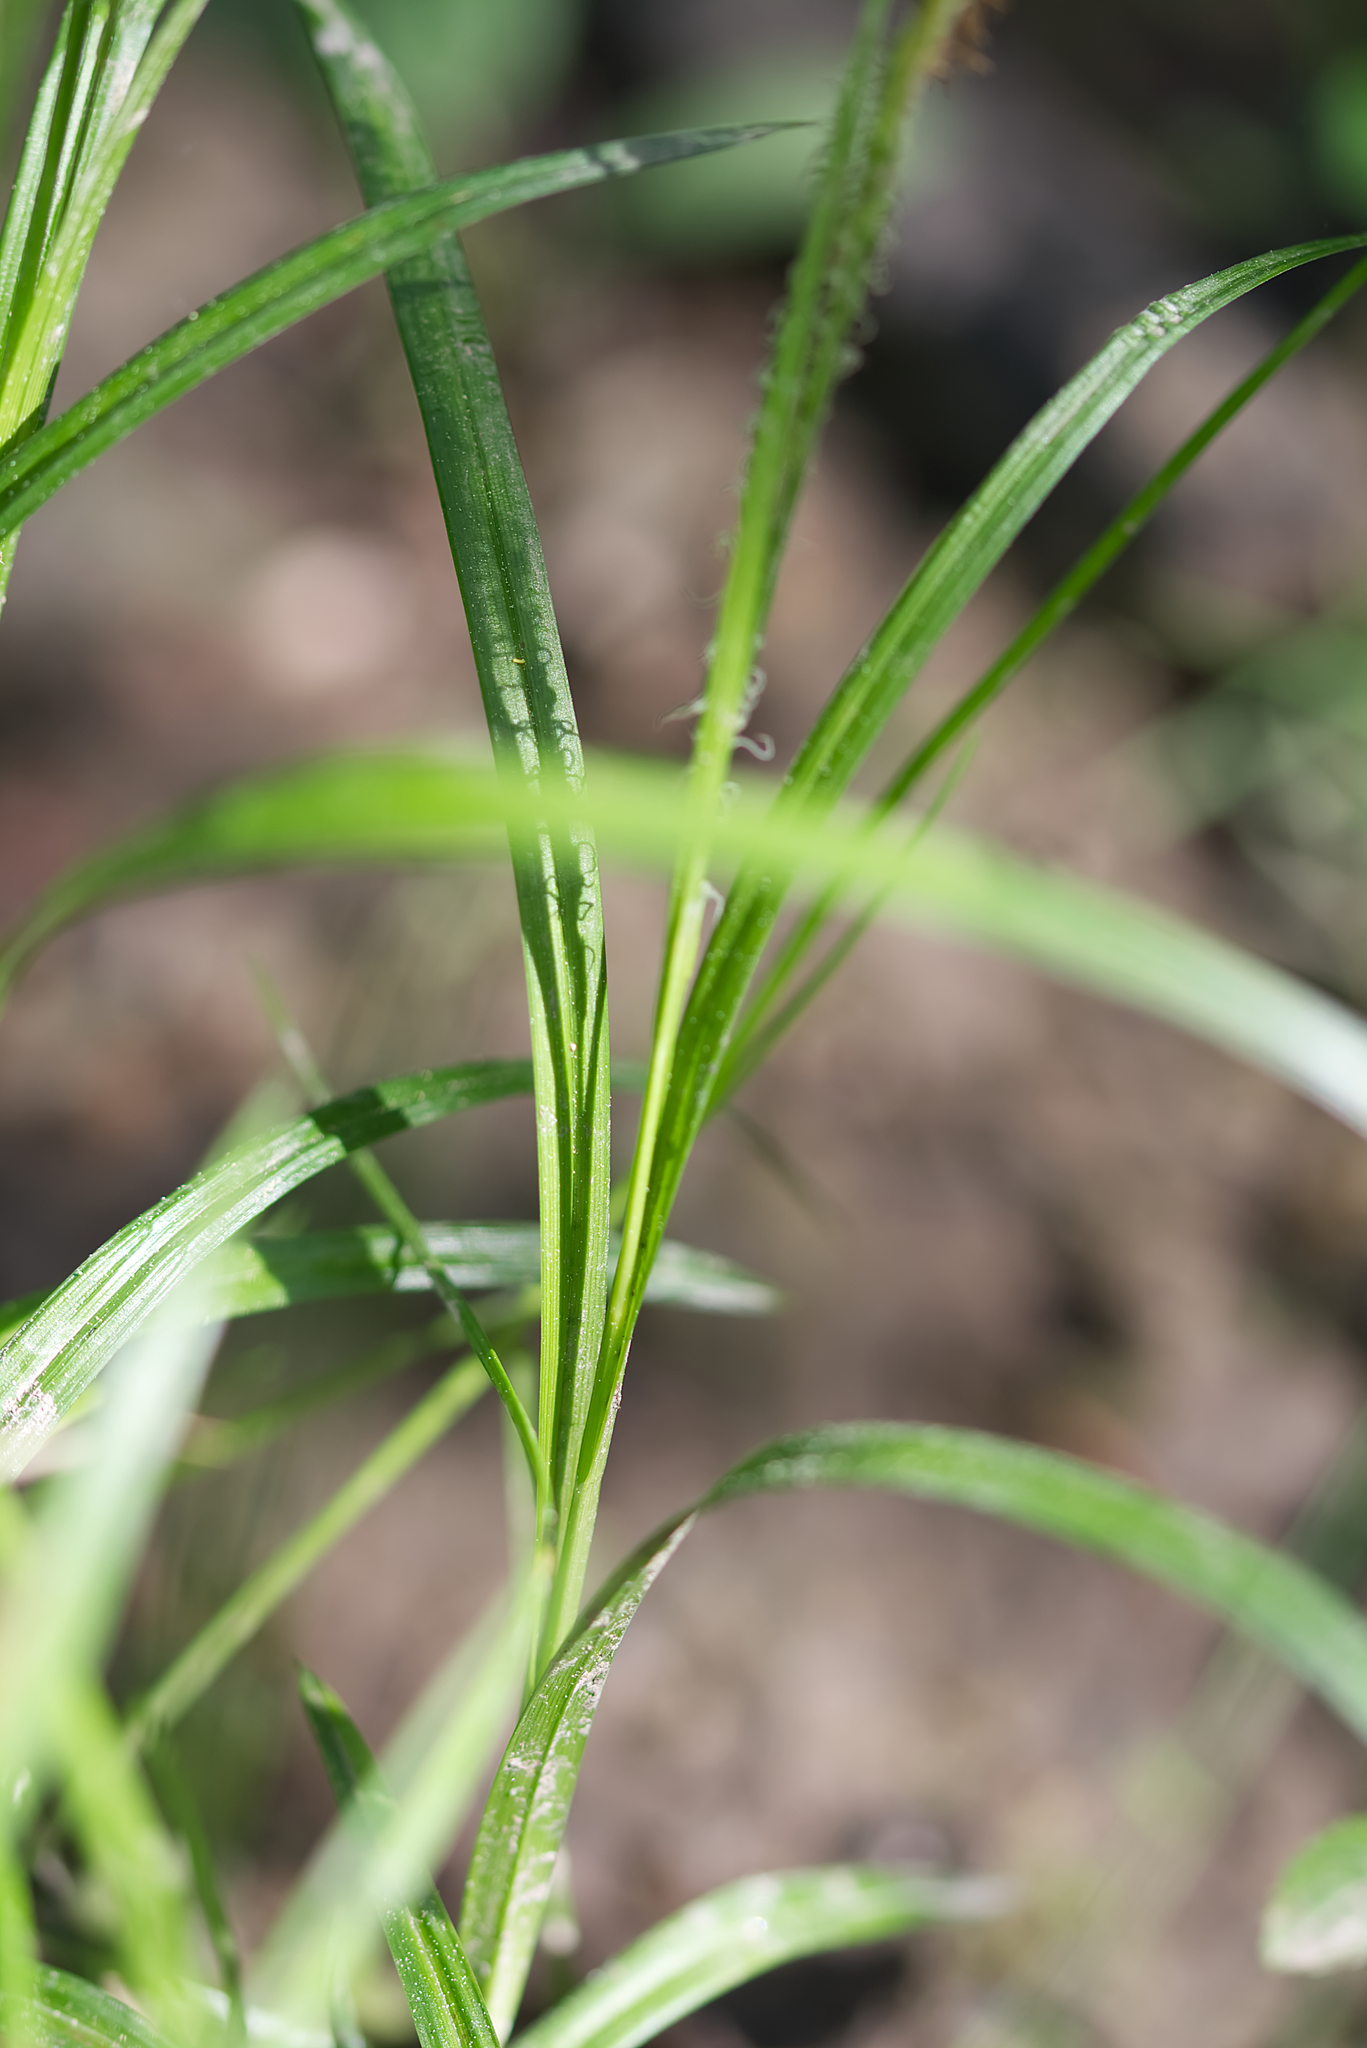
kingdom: Plantae
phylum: Tracheophyta
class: Liliopsida
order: Poales
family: Cyperaceae
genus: Carex
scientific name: Carex sylvatica
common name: Wood-sedge
